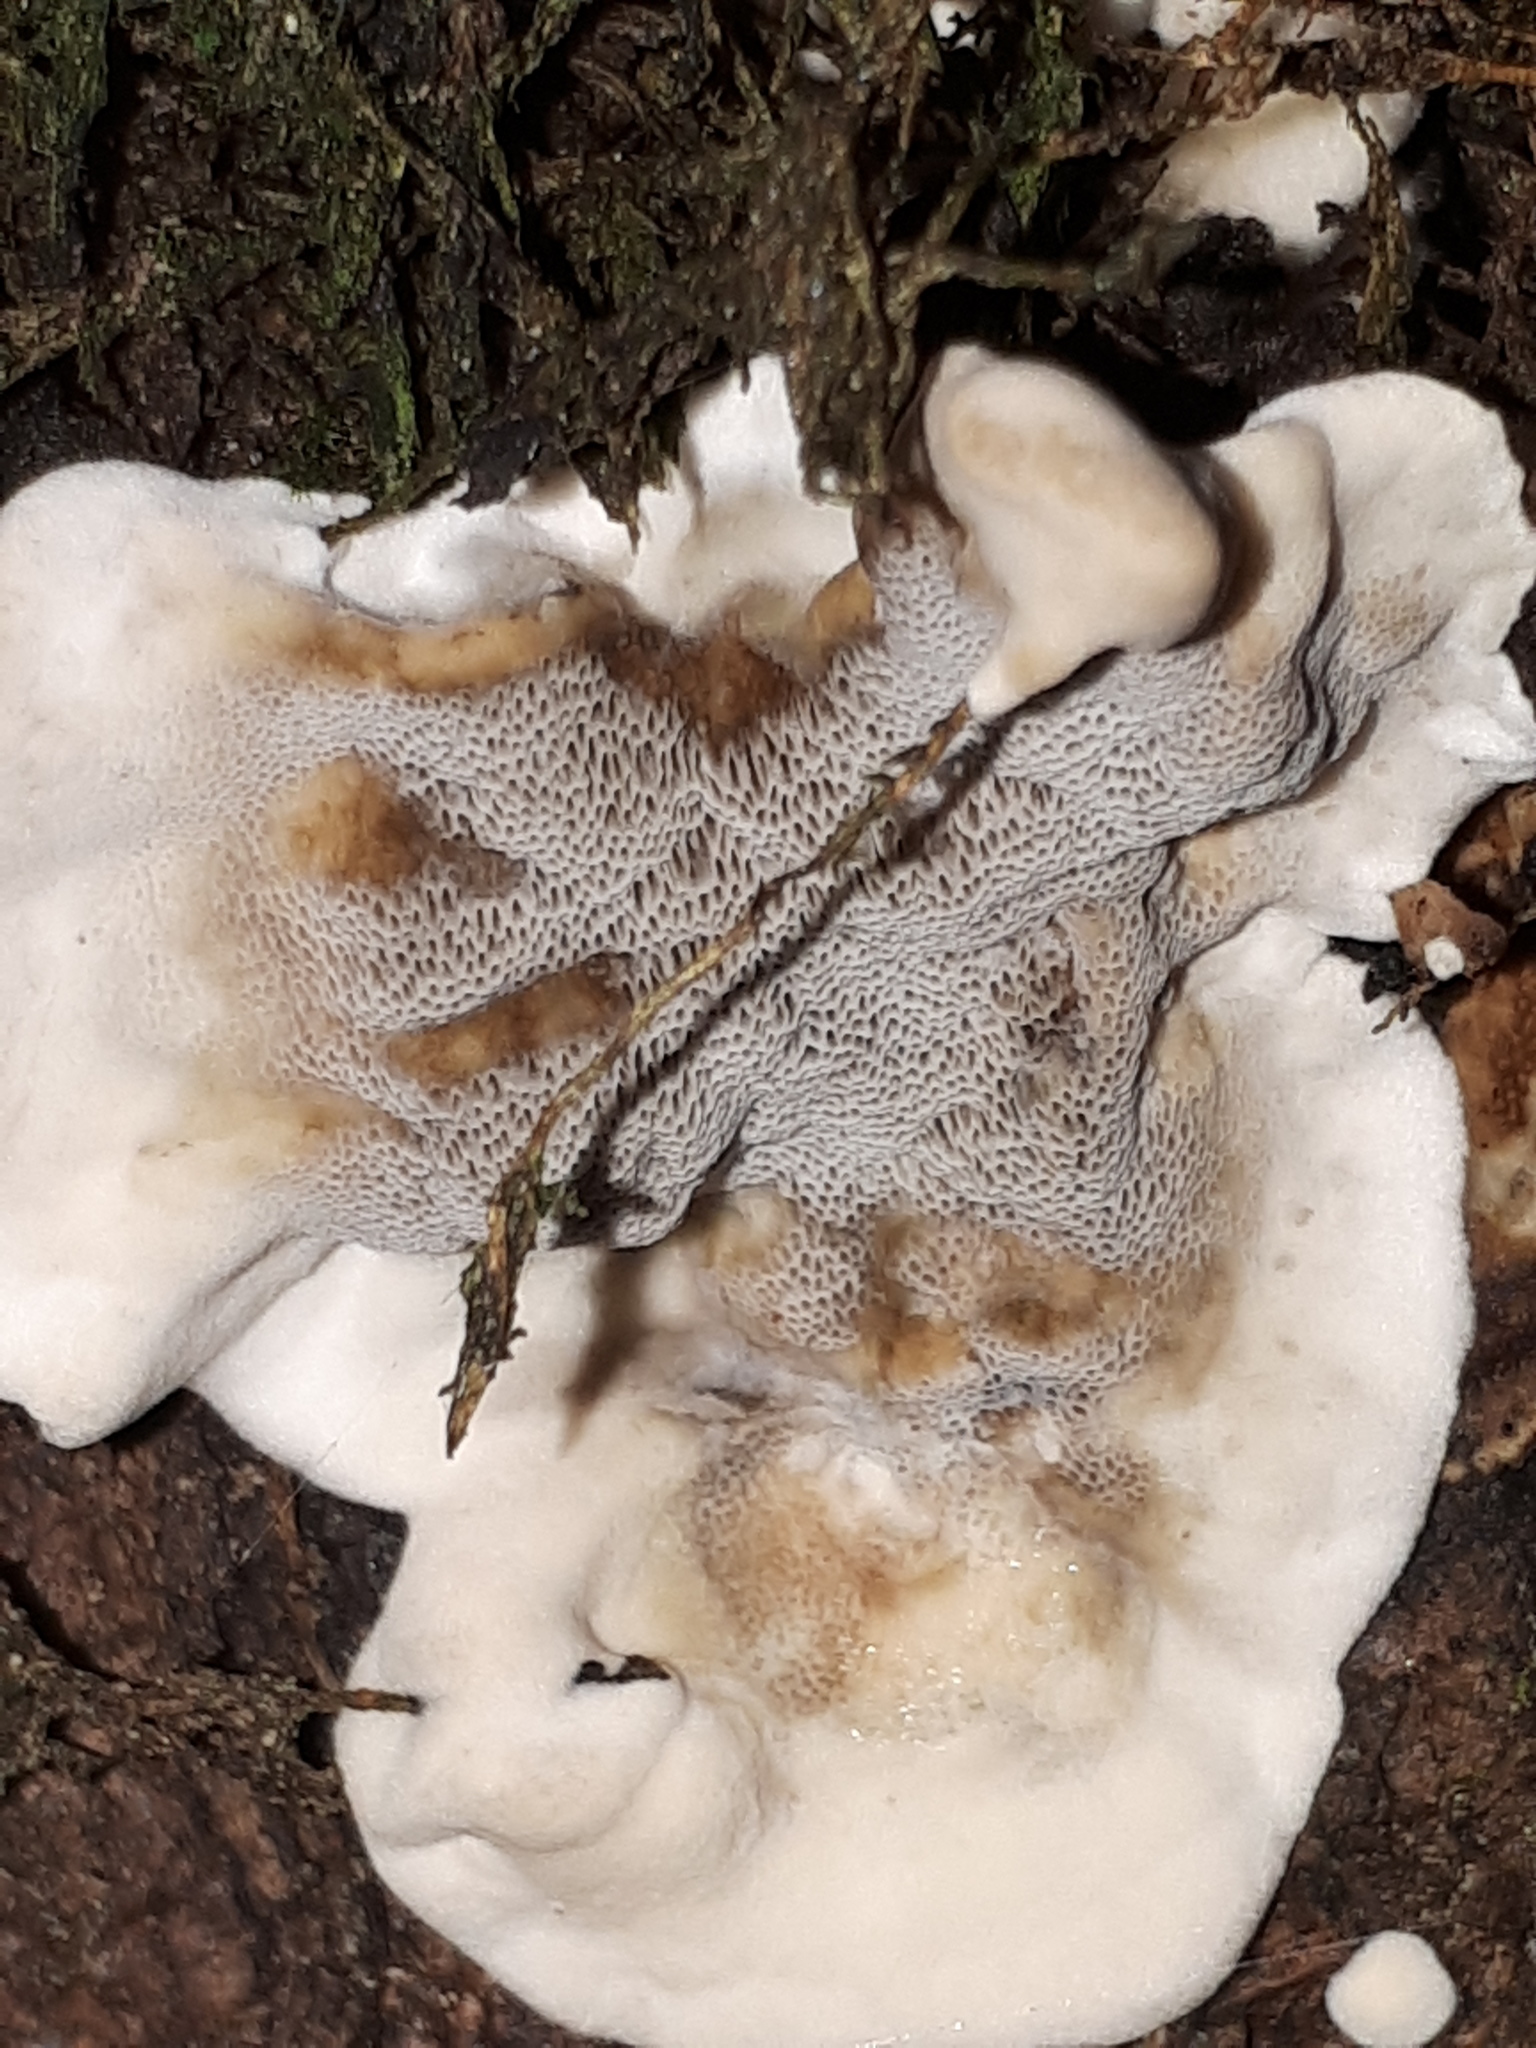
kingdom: Fungi
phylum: Basidiomycota
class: Agaricomycetes
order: Polyporales
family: Phanerochaetaceae
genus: Bjerkandera
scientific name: Bjerkandera adusta
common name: Smoky bracket
